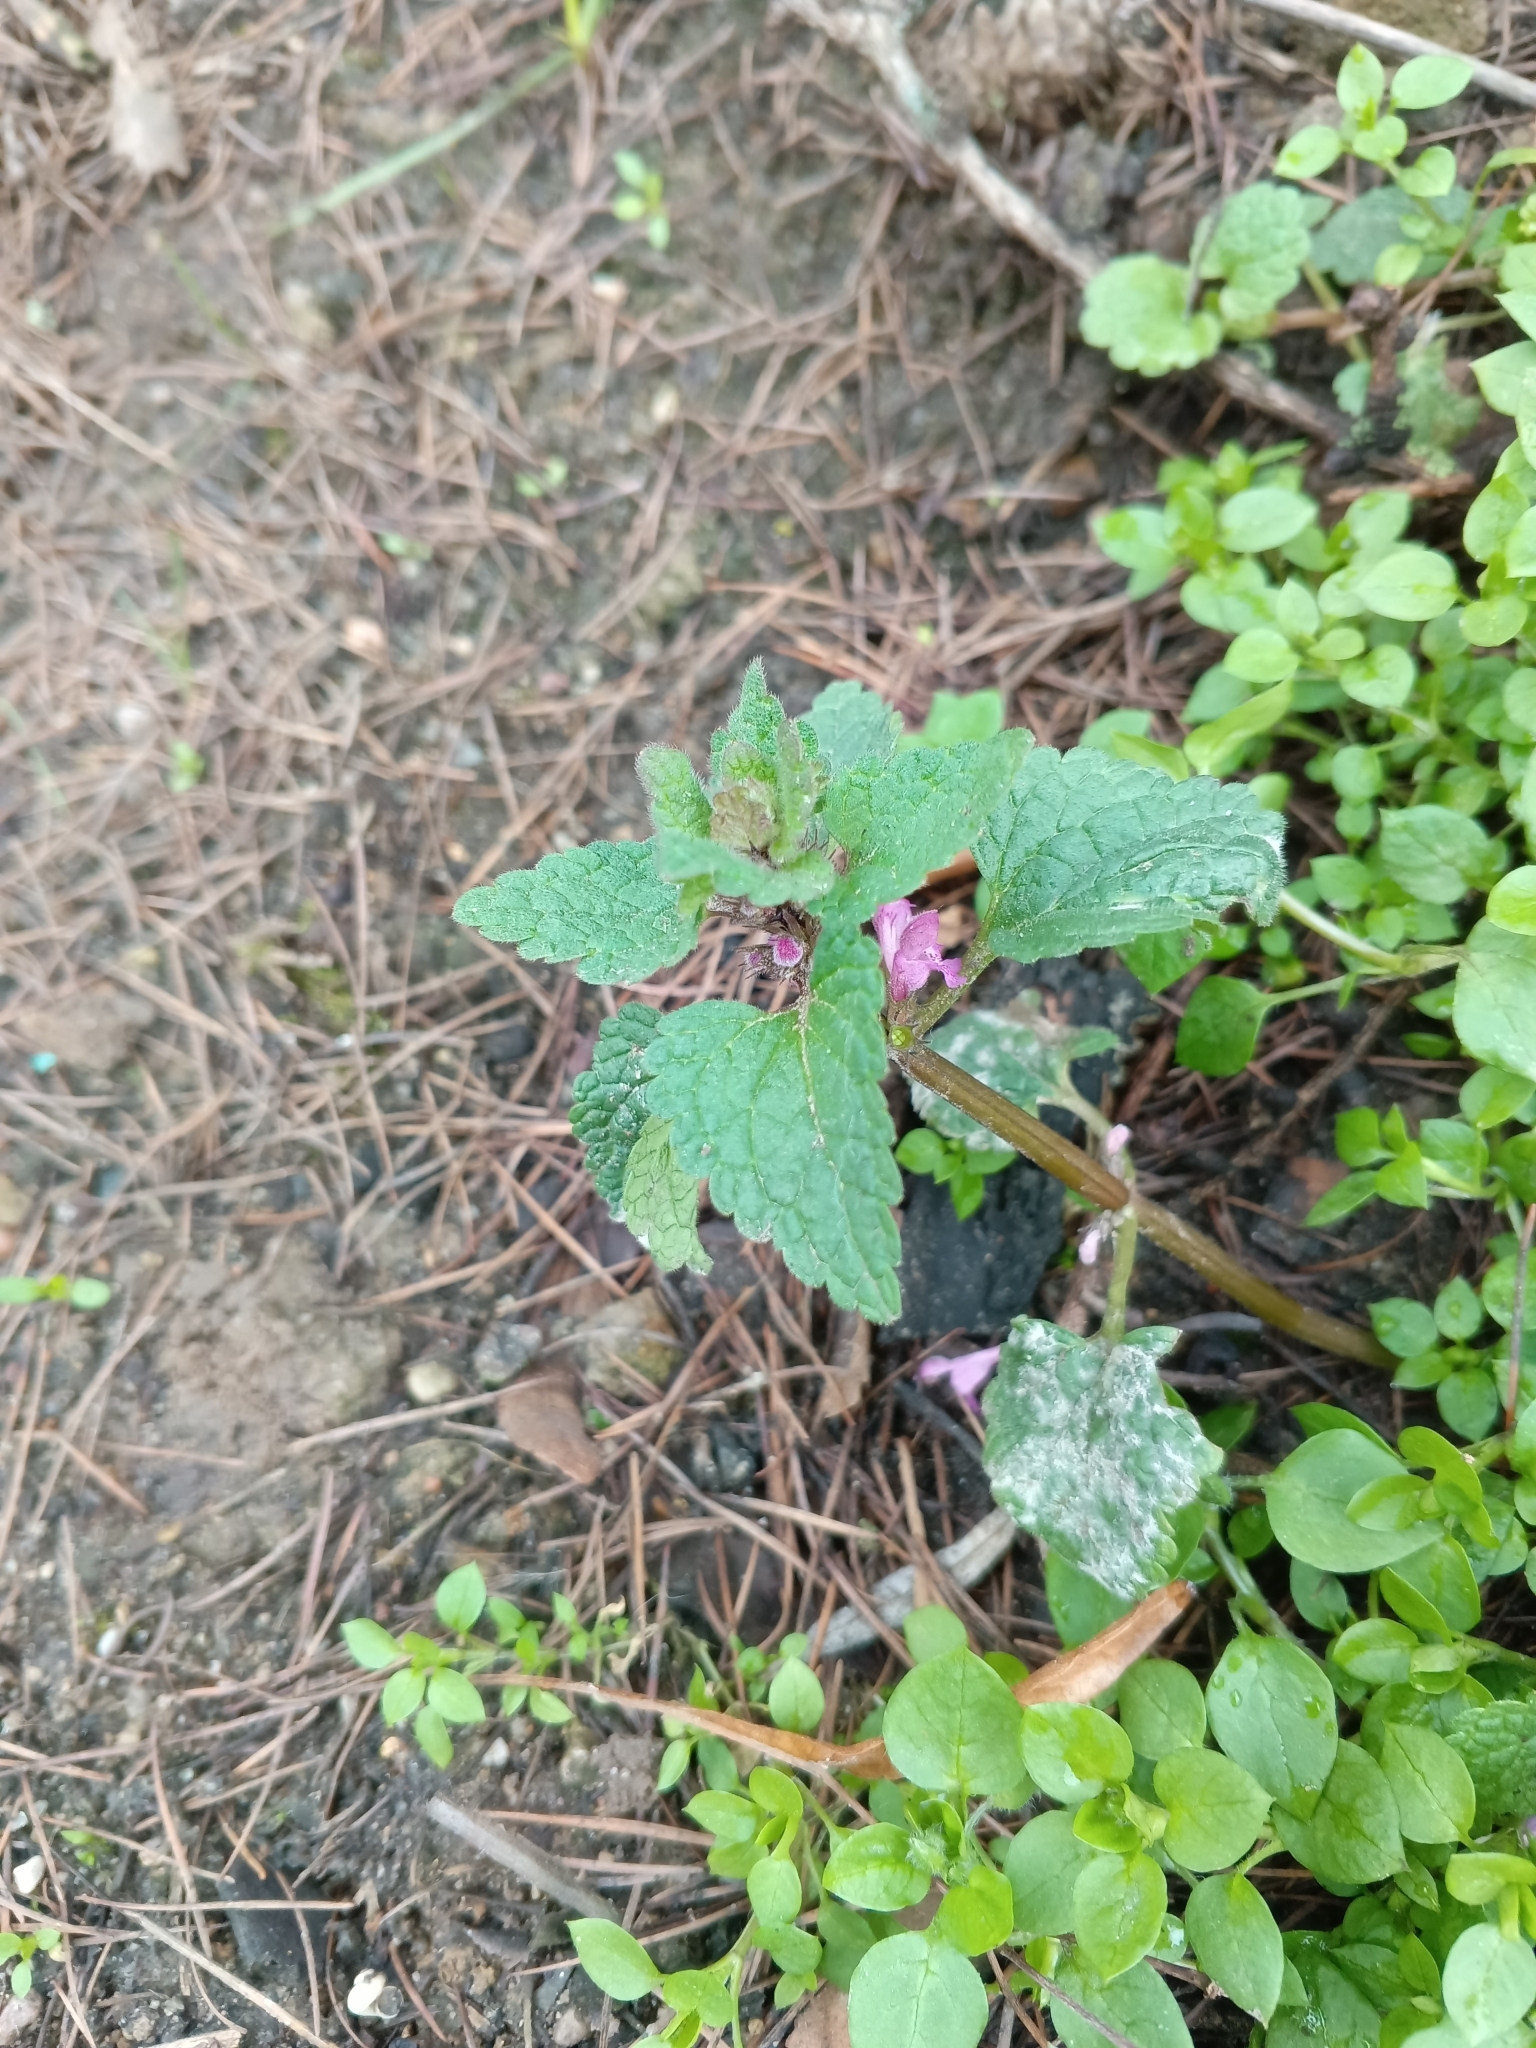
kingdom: Plantae
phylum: Tracheophyta
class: Magnoliopsida
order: Lamiales
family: Lamiaceae
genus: Lamium
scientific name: Lamium purpureum
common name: Red dead-nettle
